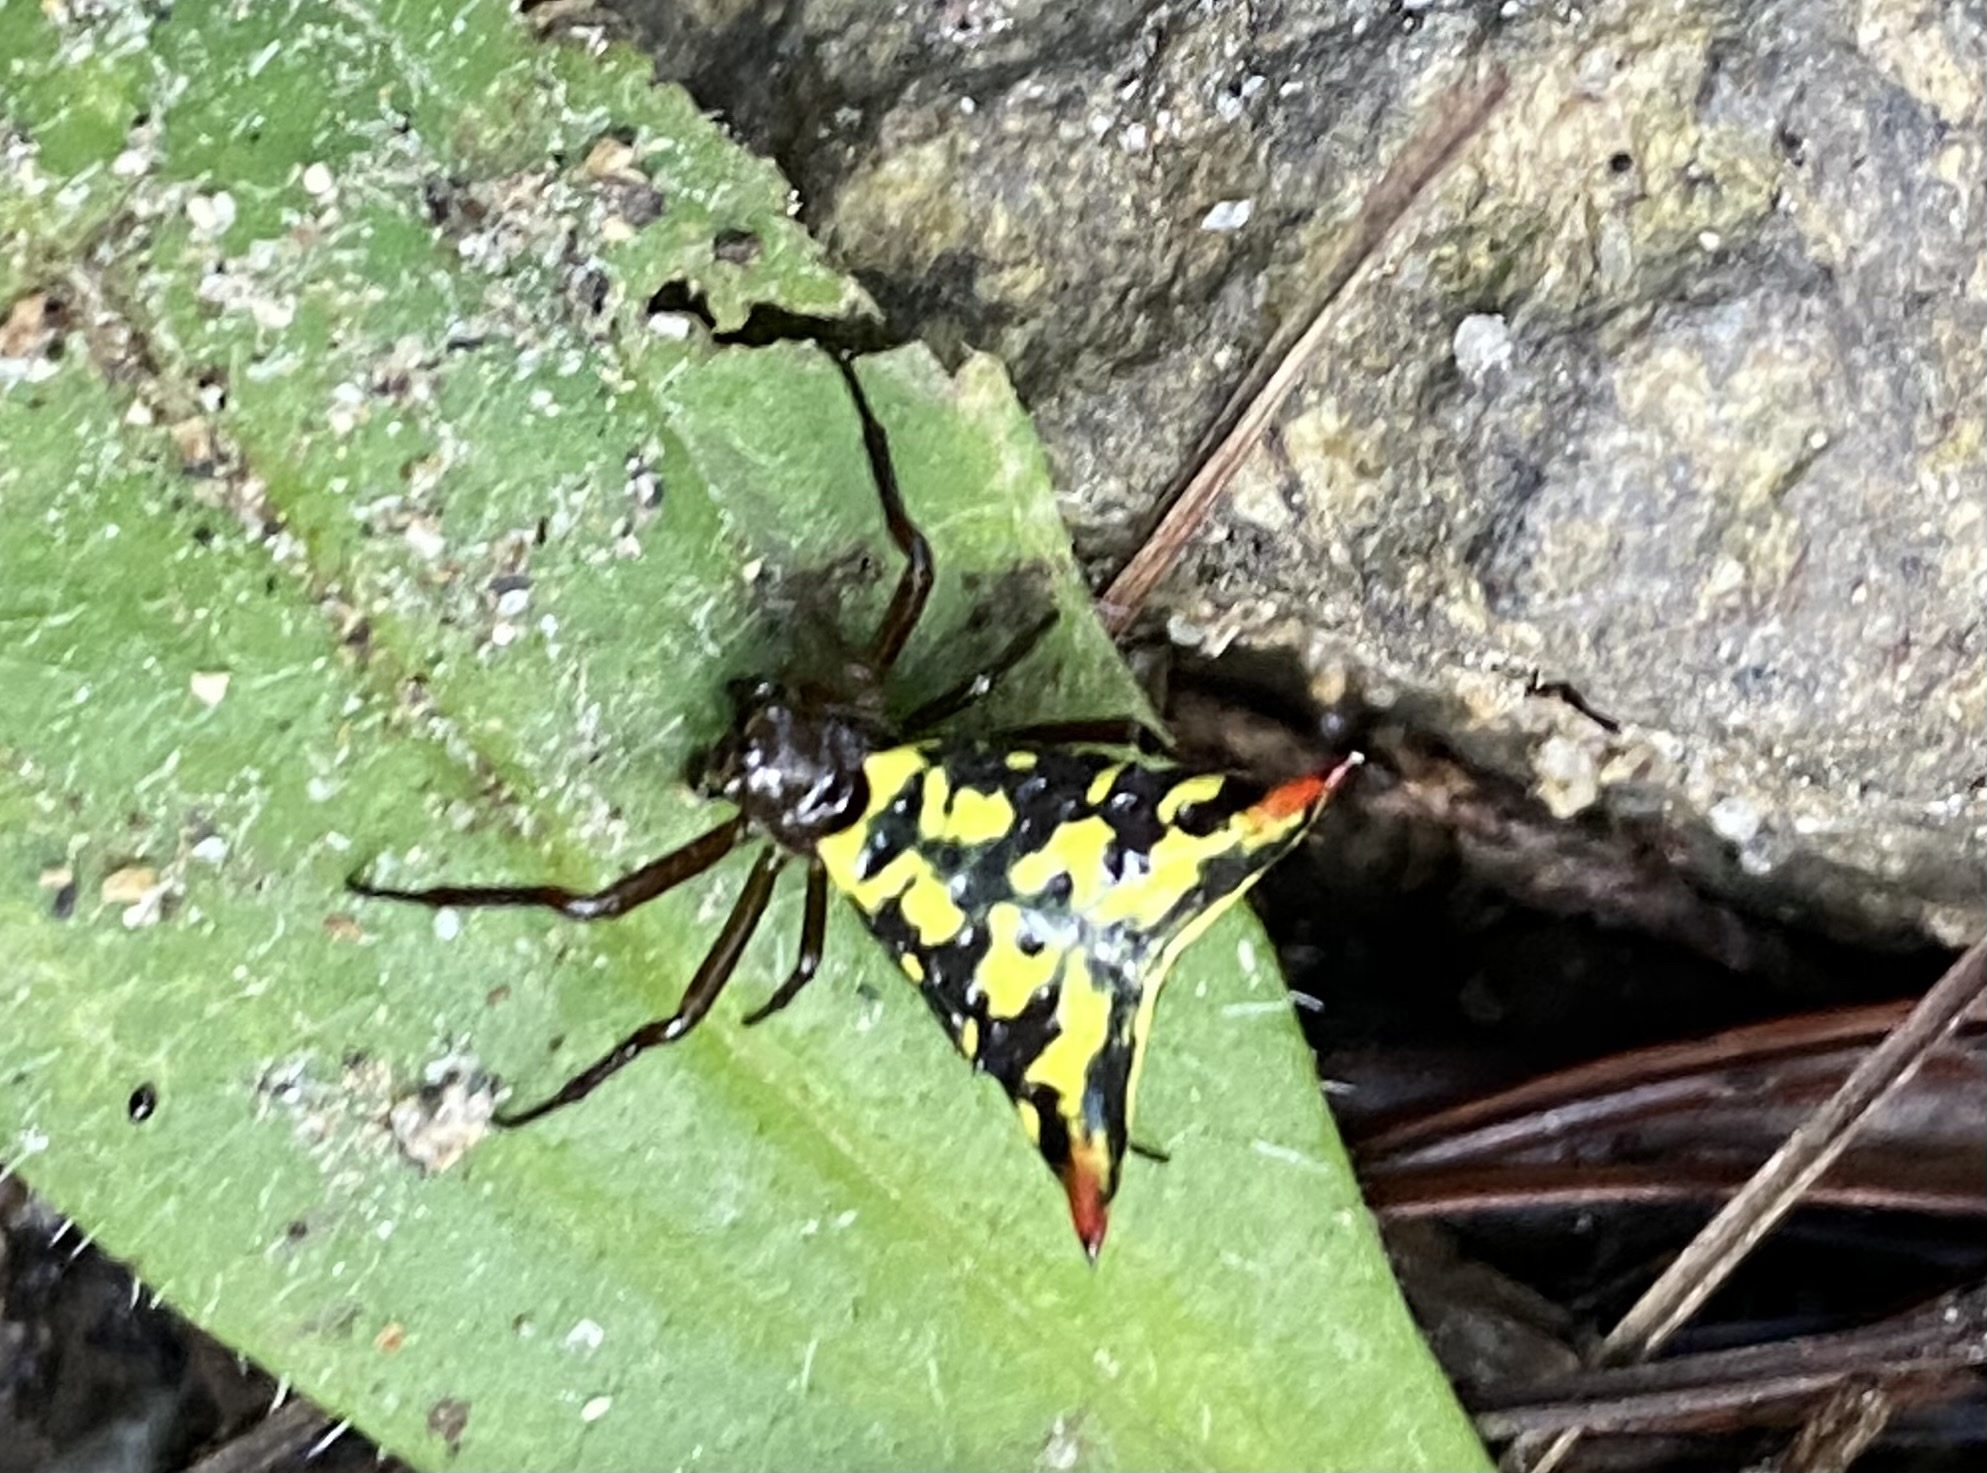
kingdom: Animalia
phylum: Arthropoda
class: Arachnida
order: Araneae
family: Araneidae
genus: Micrathena
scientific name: Micrathena lucasi
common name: Orb weavers
